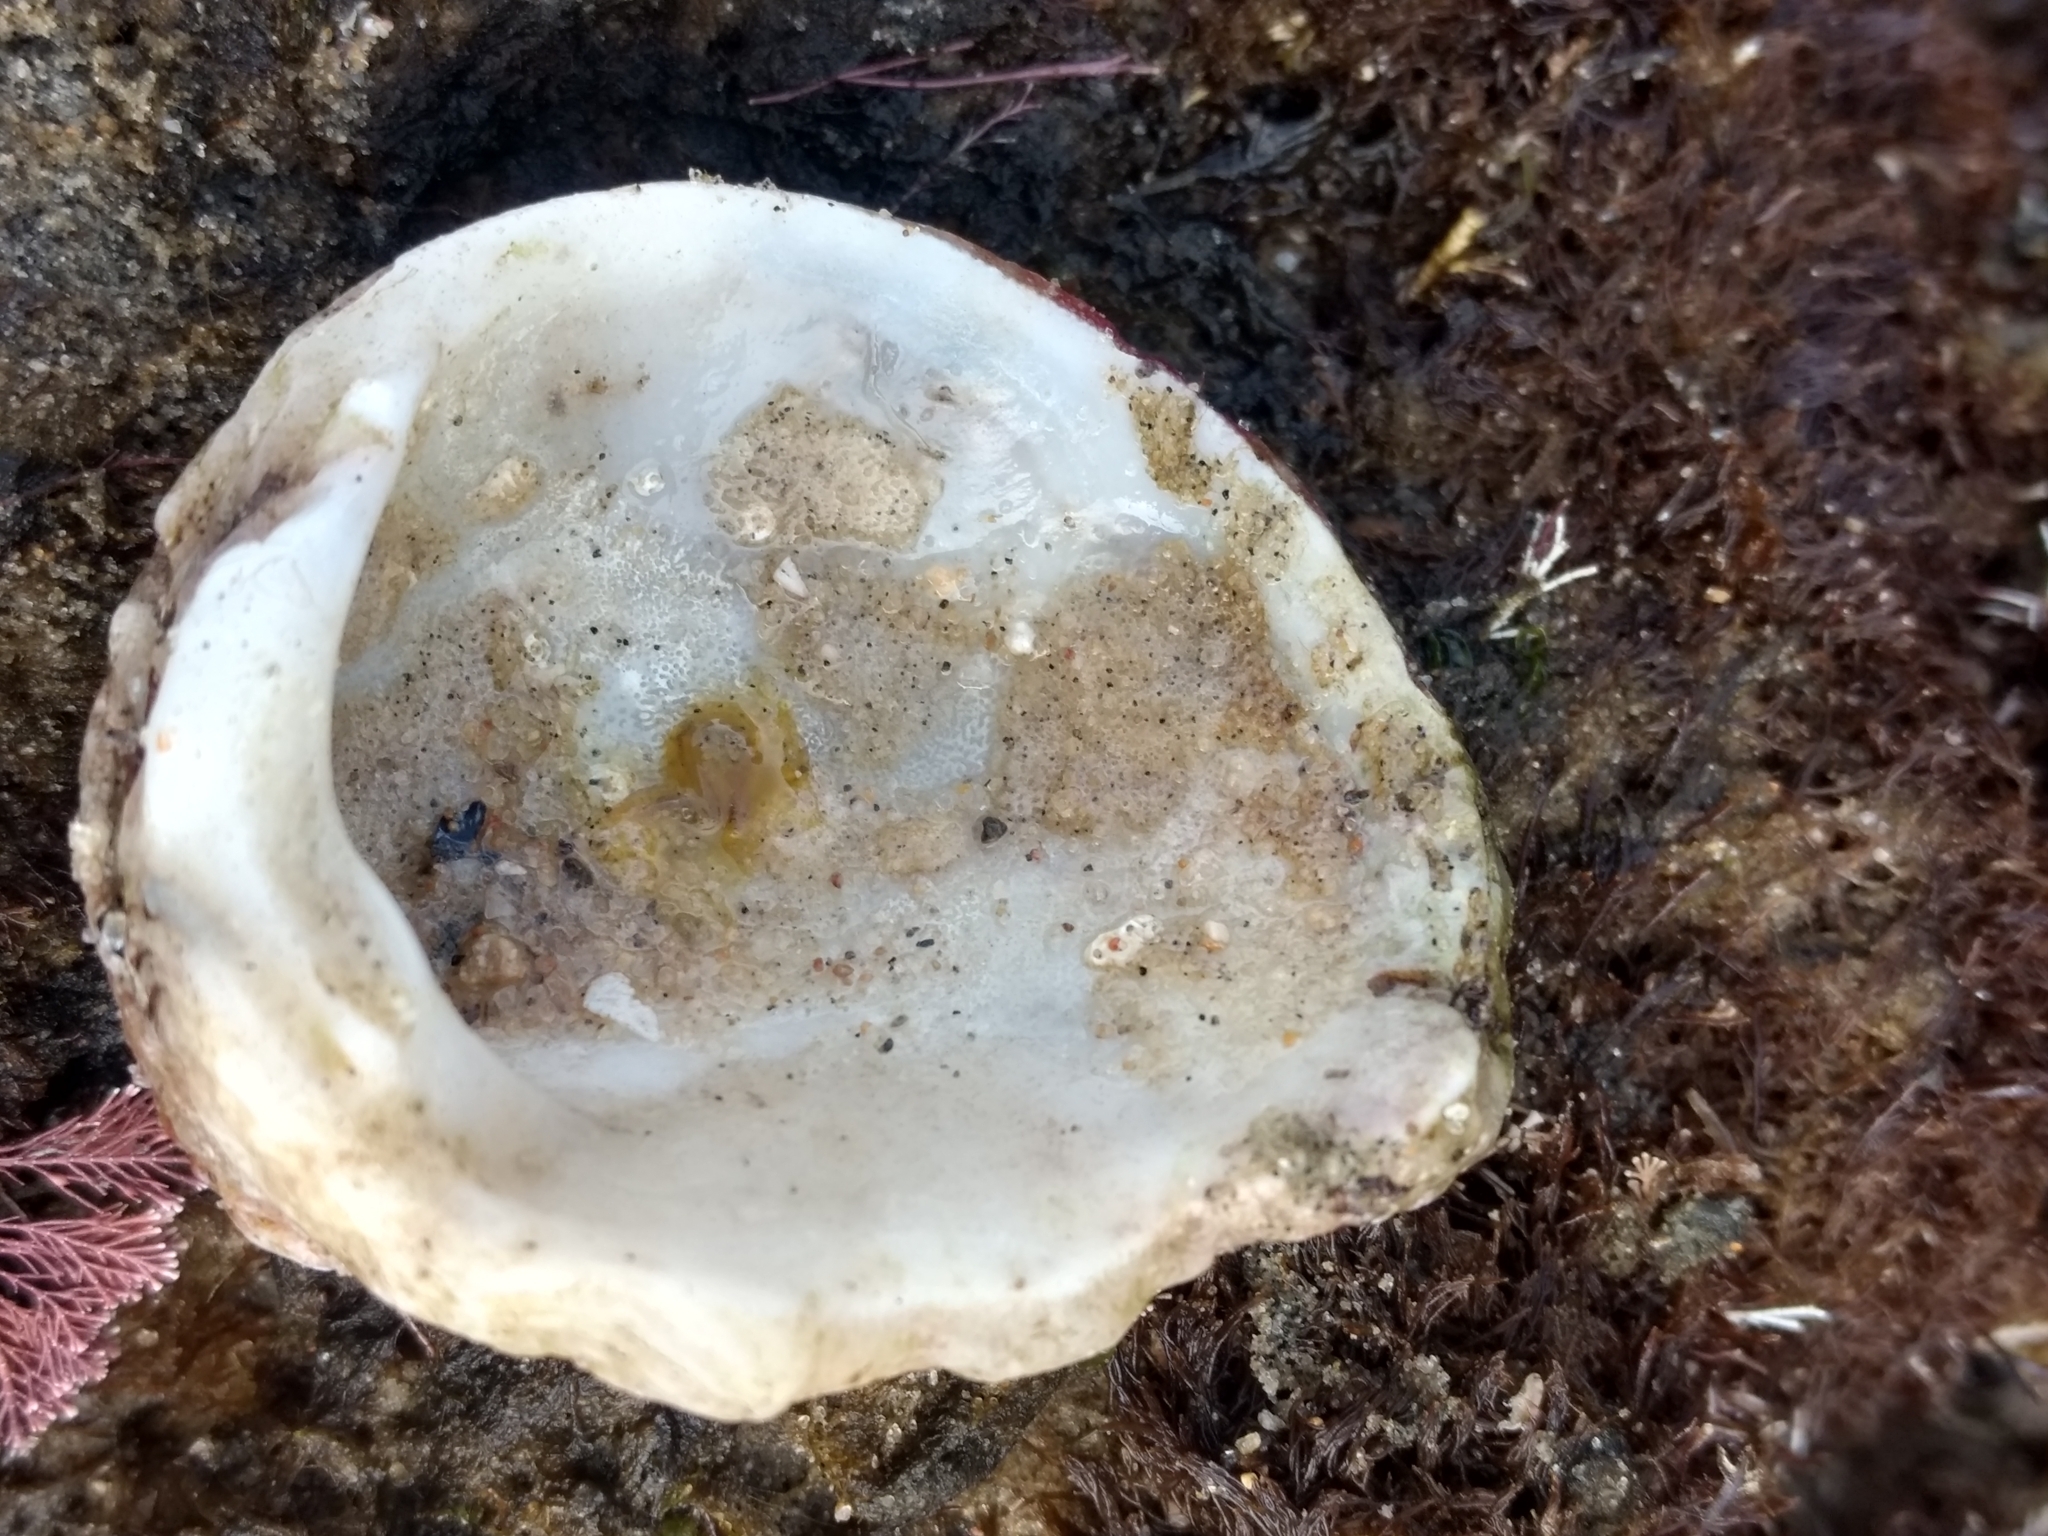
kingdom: Animalia
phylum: Mollusca
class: Bivalvia
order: Venerida
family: Chamidae
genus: Chama
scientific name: Chama arcana
